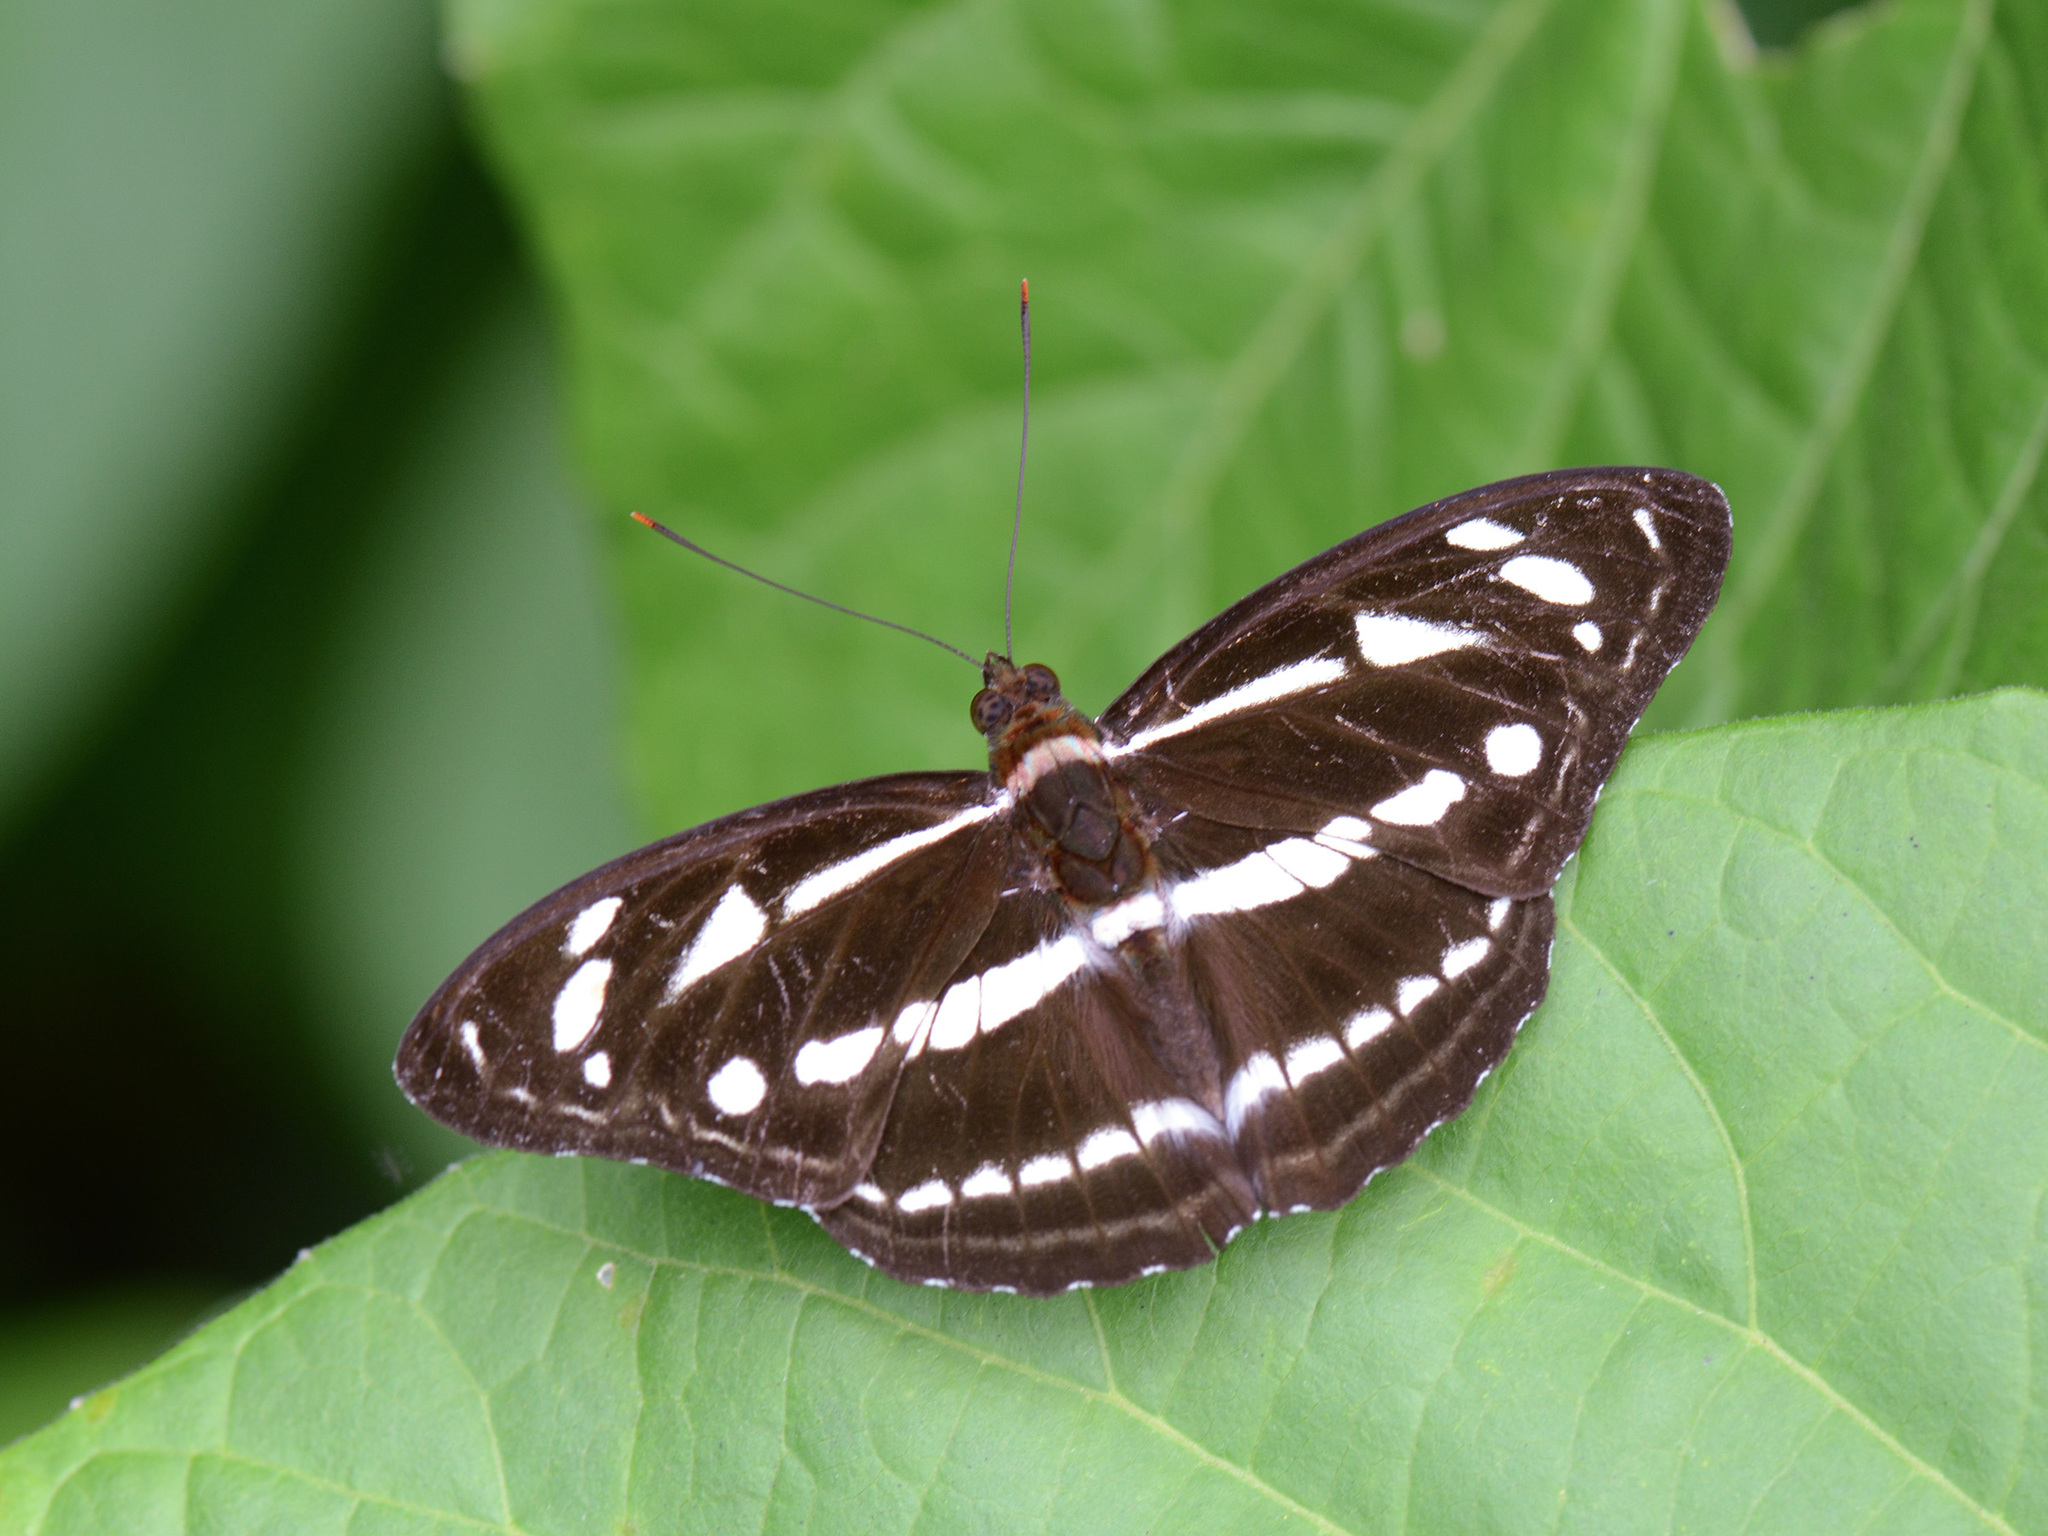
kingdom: Animalia
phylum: Arthropoda
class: Insecta
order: Lepidoptera
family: Nymphalidae
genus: Parathyma
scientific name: Parathyma kanwa
